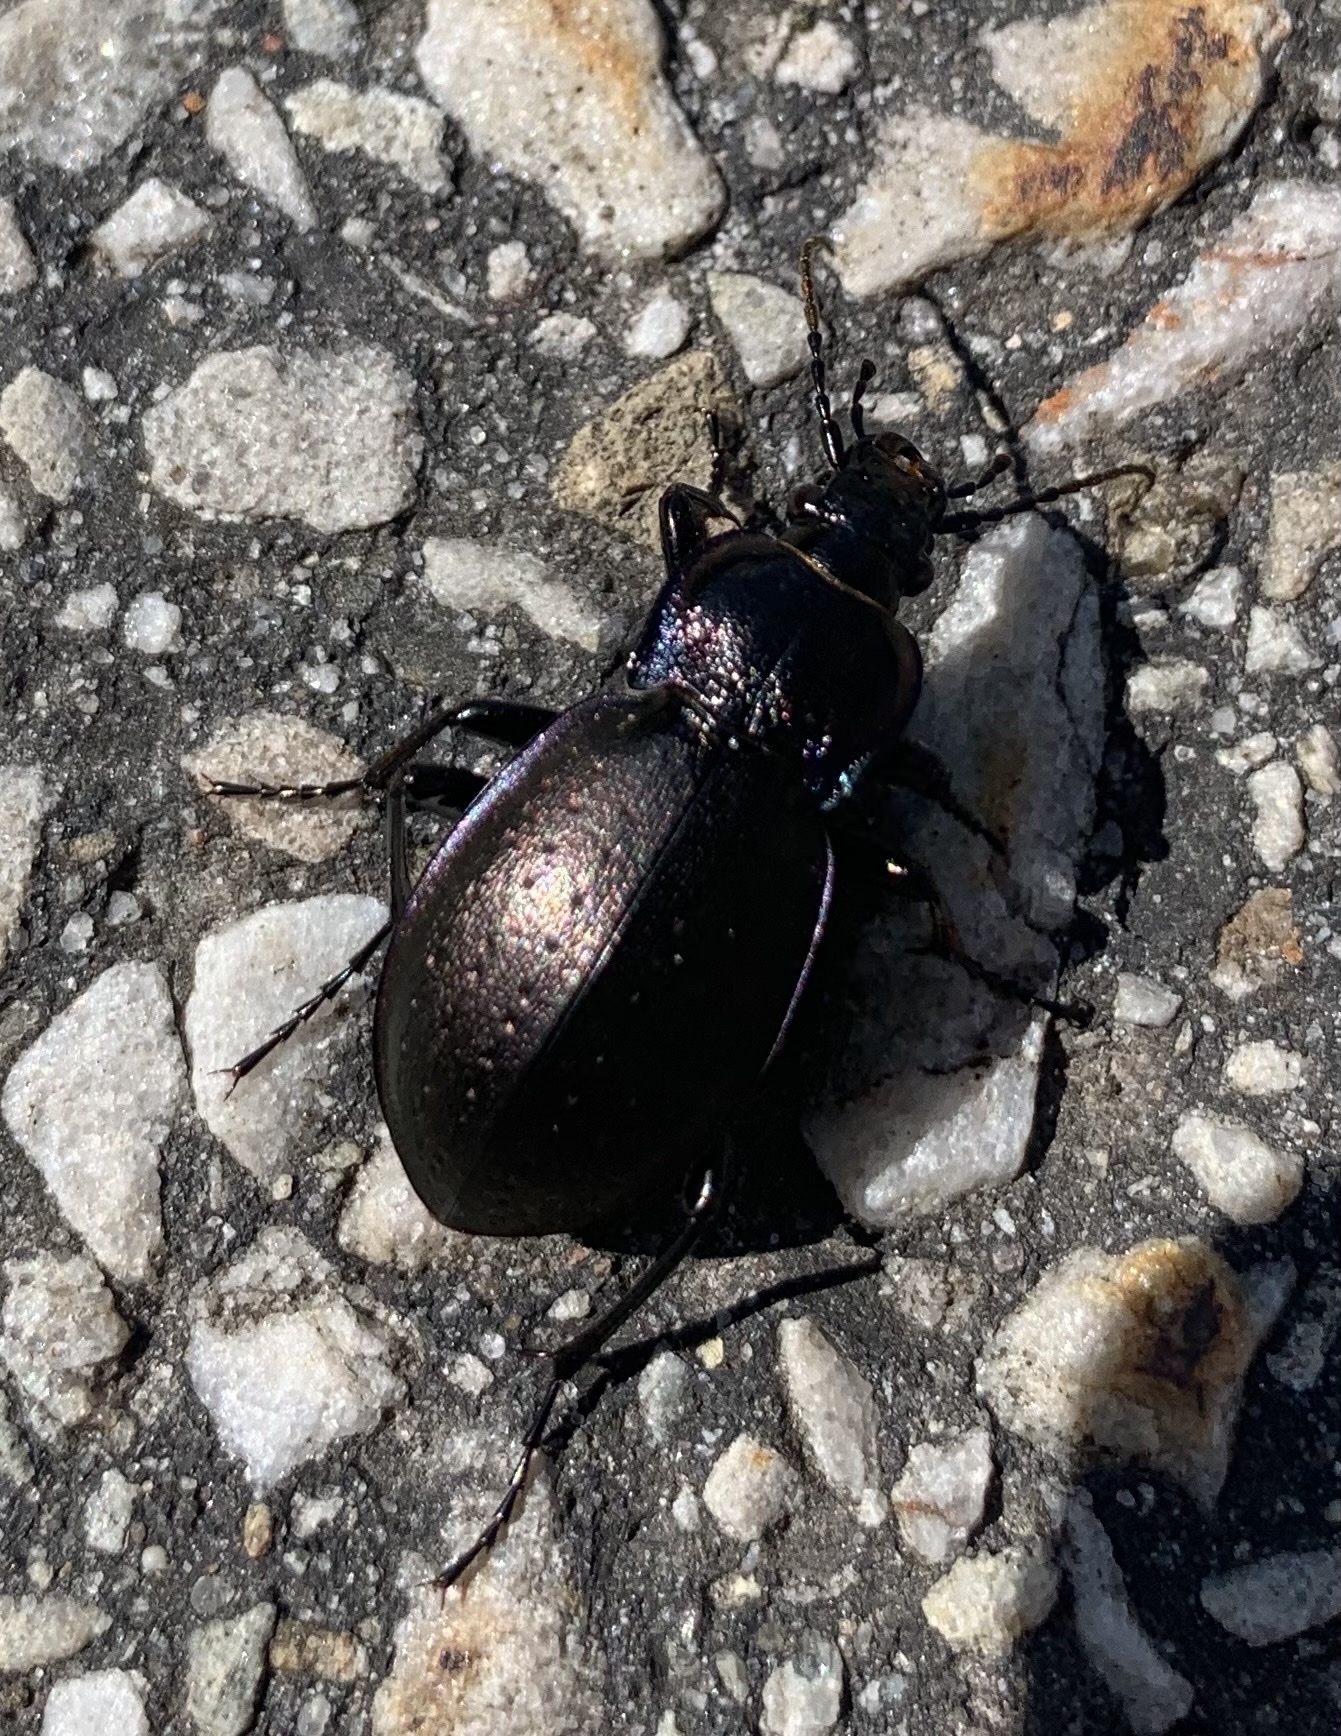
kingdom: Animalia
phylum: Arthropoda
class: Insecta
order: Coleoptera
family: Carabidae
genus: Carabus
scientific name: Carabus nemoralis
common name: European ground beetle
